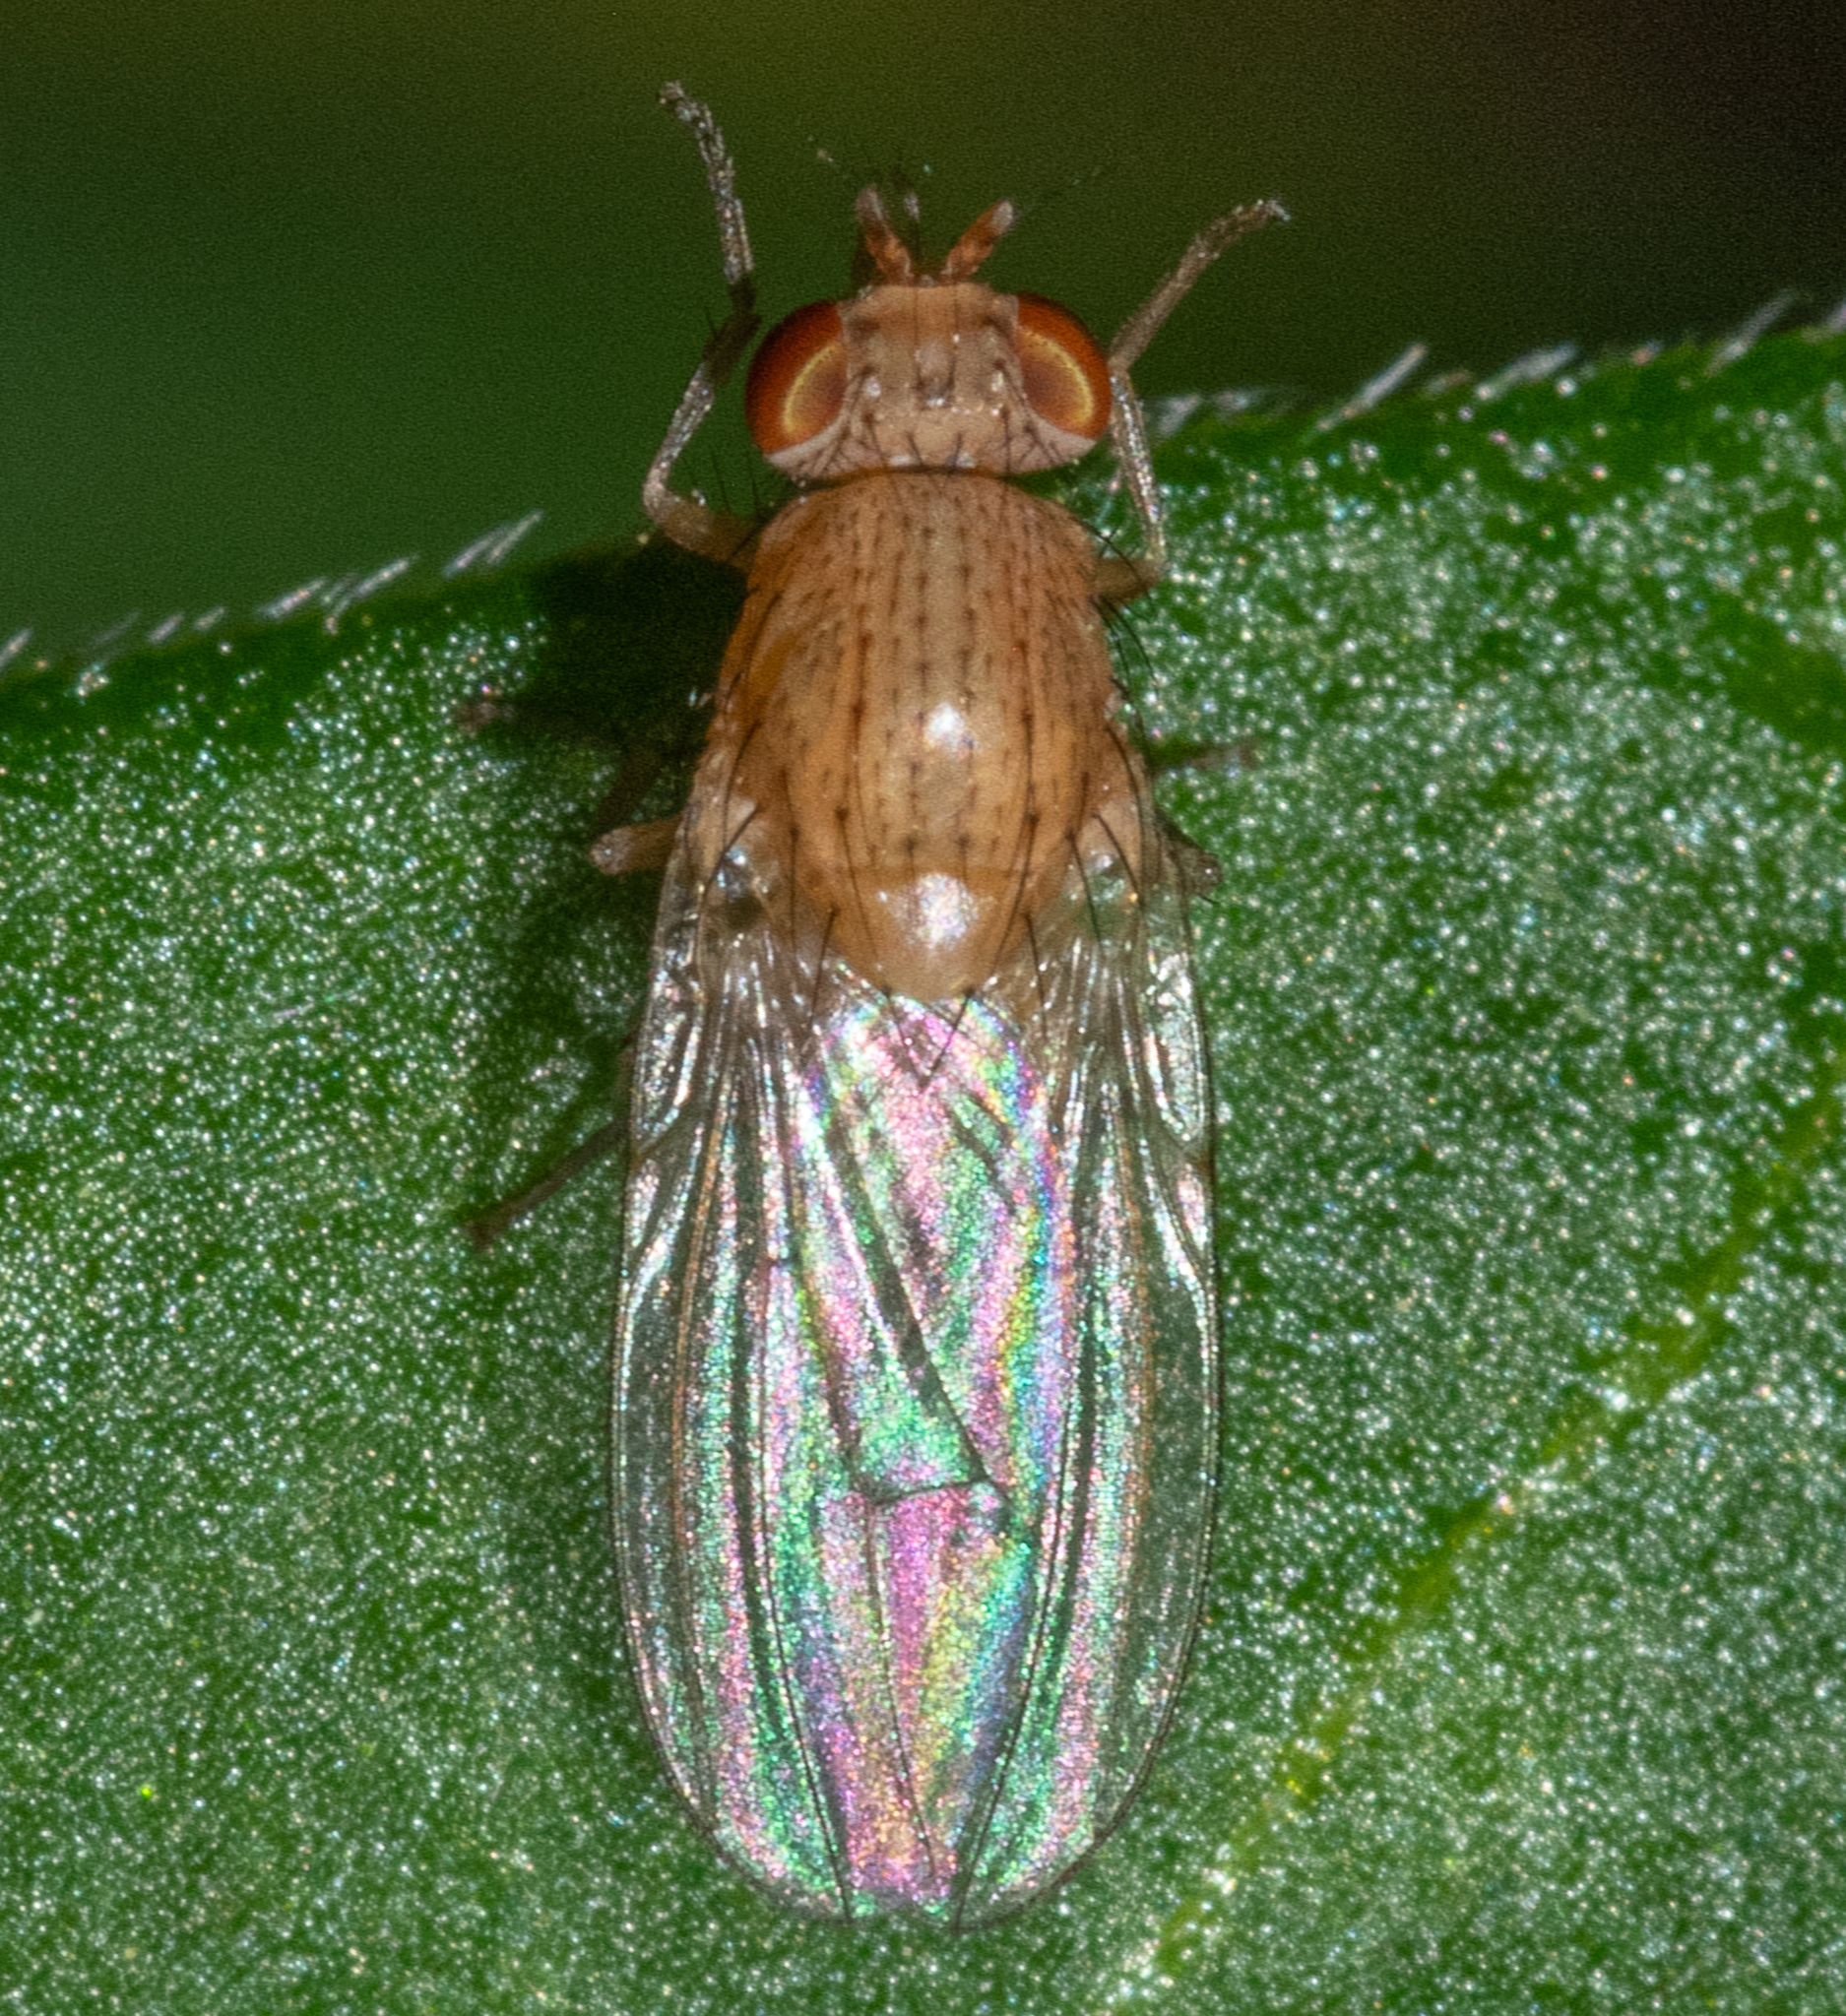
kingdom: Animalia
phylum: Arthropoda
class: Insecta
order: Diptera
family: Lauxaniidae
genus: Minettia
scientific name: Minettia flaveola
